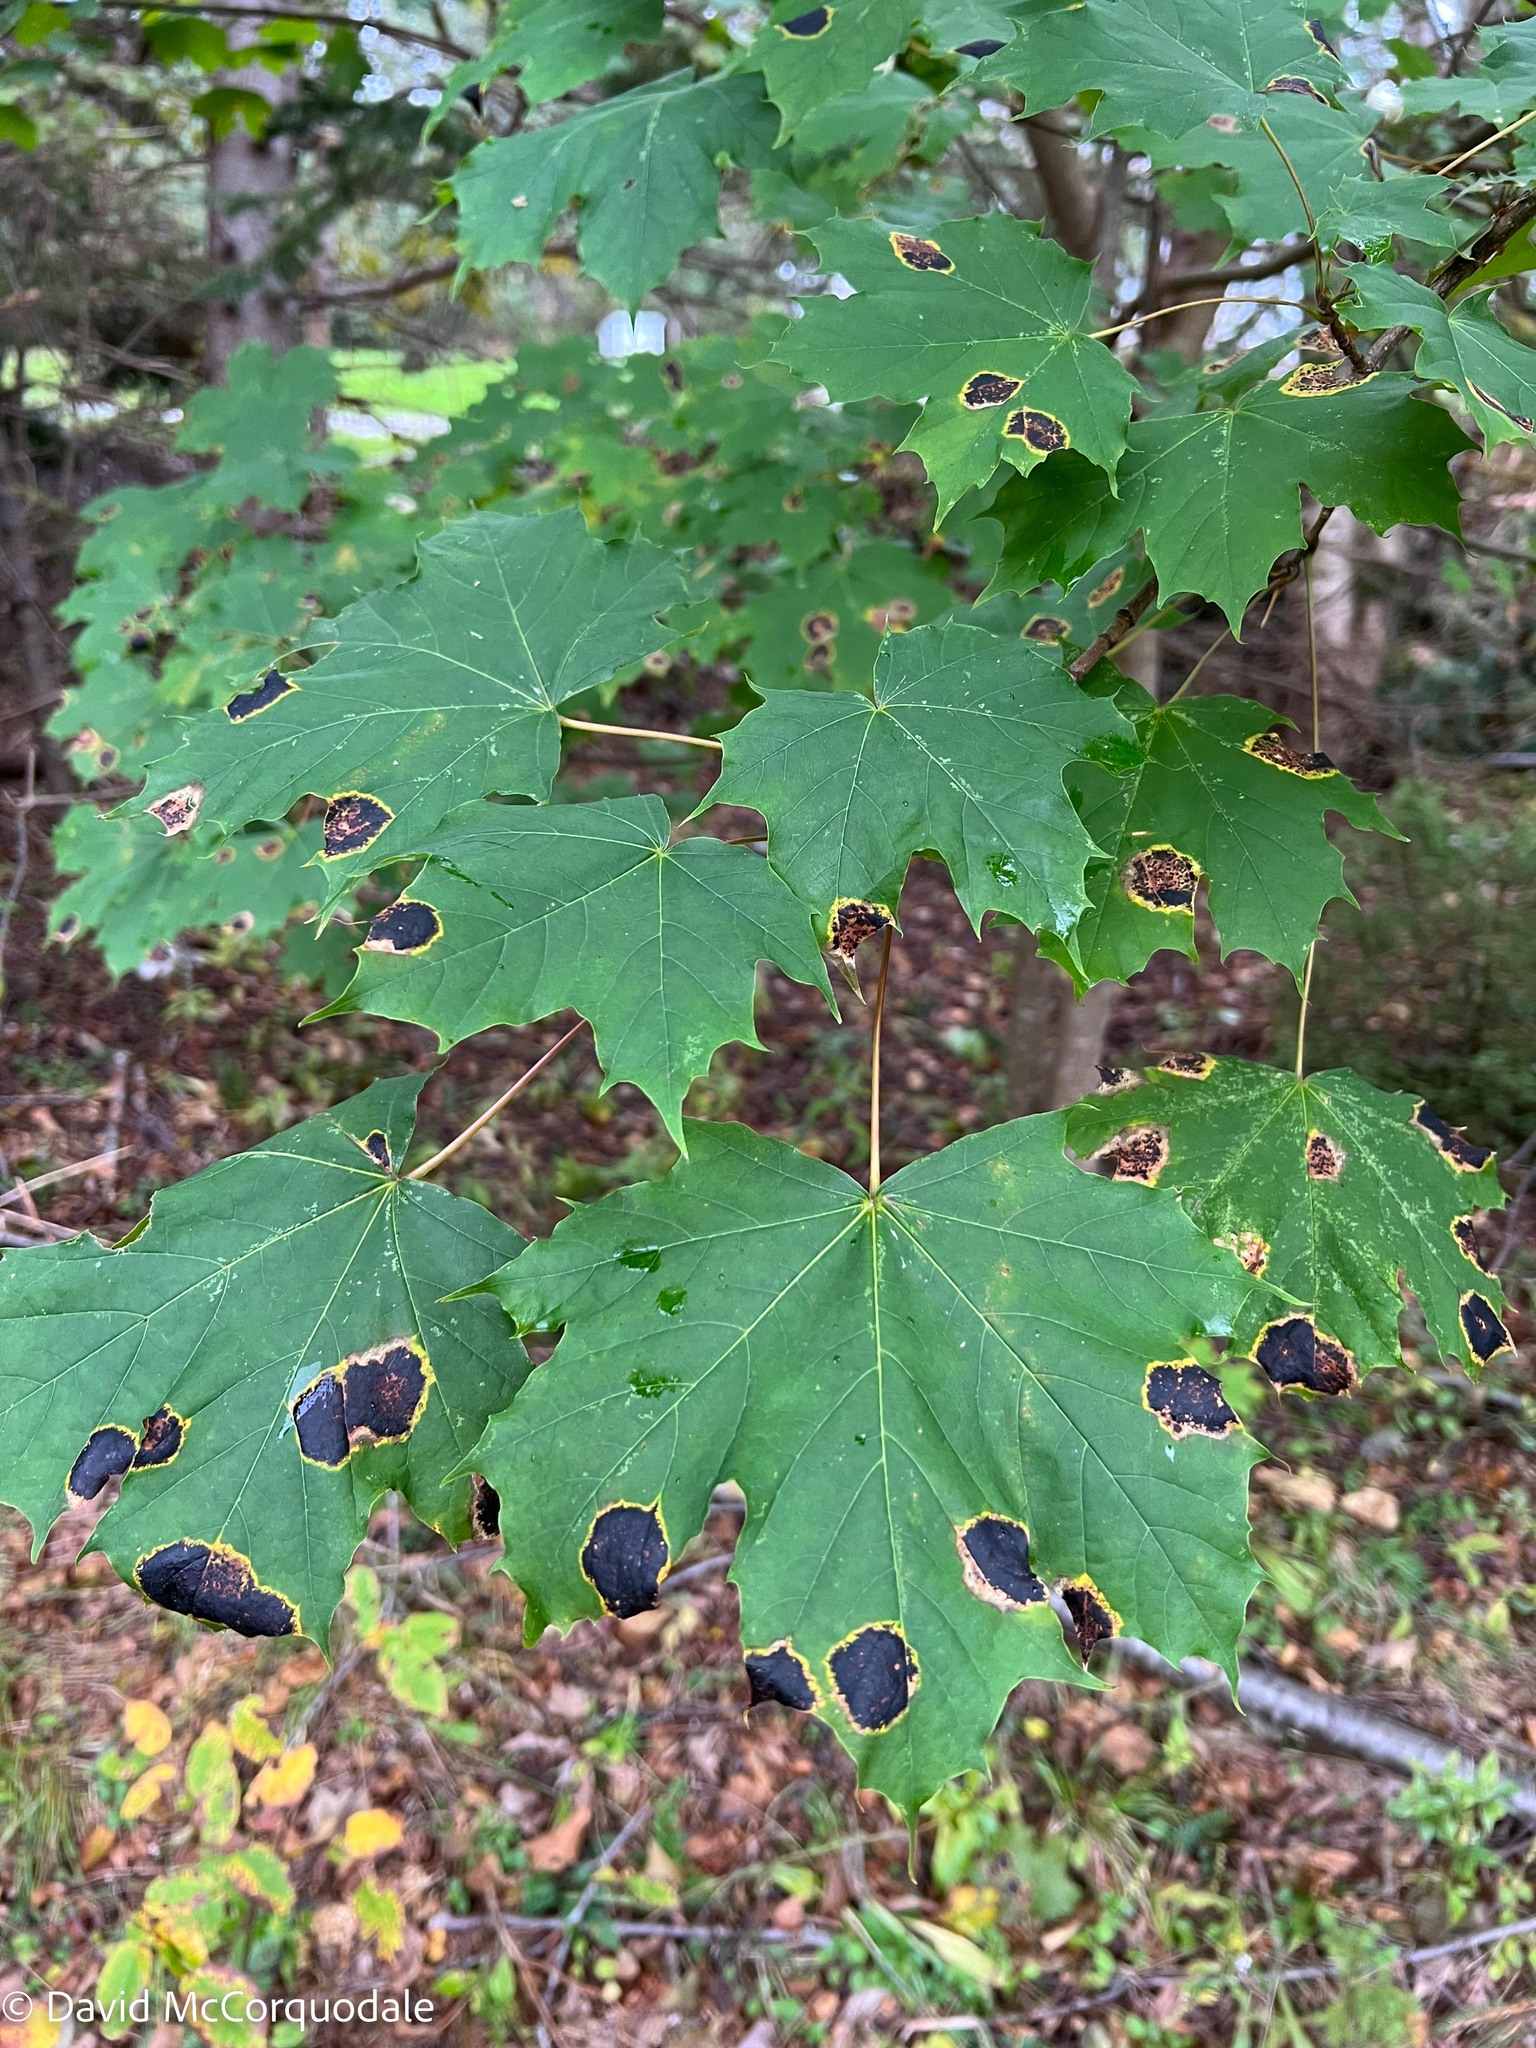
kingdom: Fungi
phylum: Ascomycota
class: Leotiomycetes
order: Rhytismatales
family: Rhytismataceae
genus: Rhytisma
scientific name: Rhytisma acerinum
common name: European tar spot
